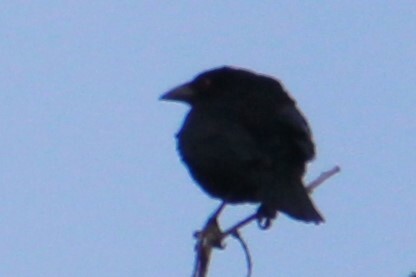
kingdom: Animalia
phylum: Chordata
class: Aves
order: Passeriformes
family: Icteridae
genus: Molothrus
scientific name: Molothrus aeneus
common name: Bronzed cowbird
